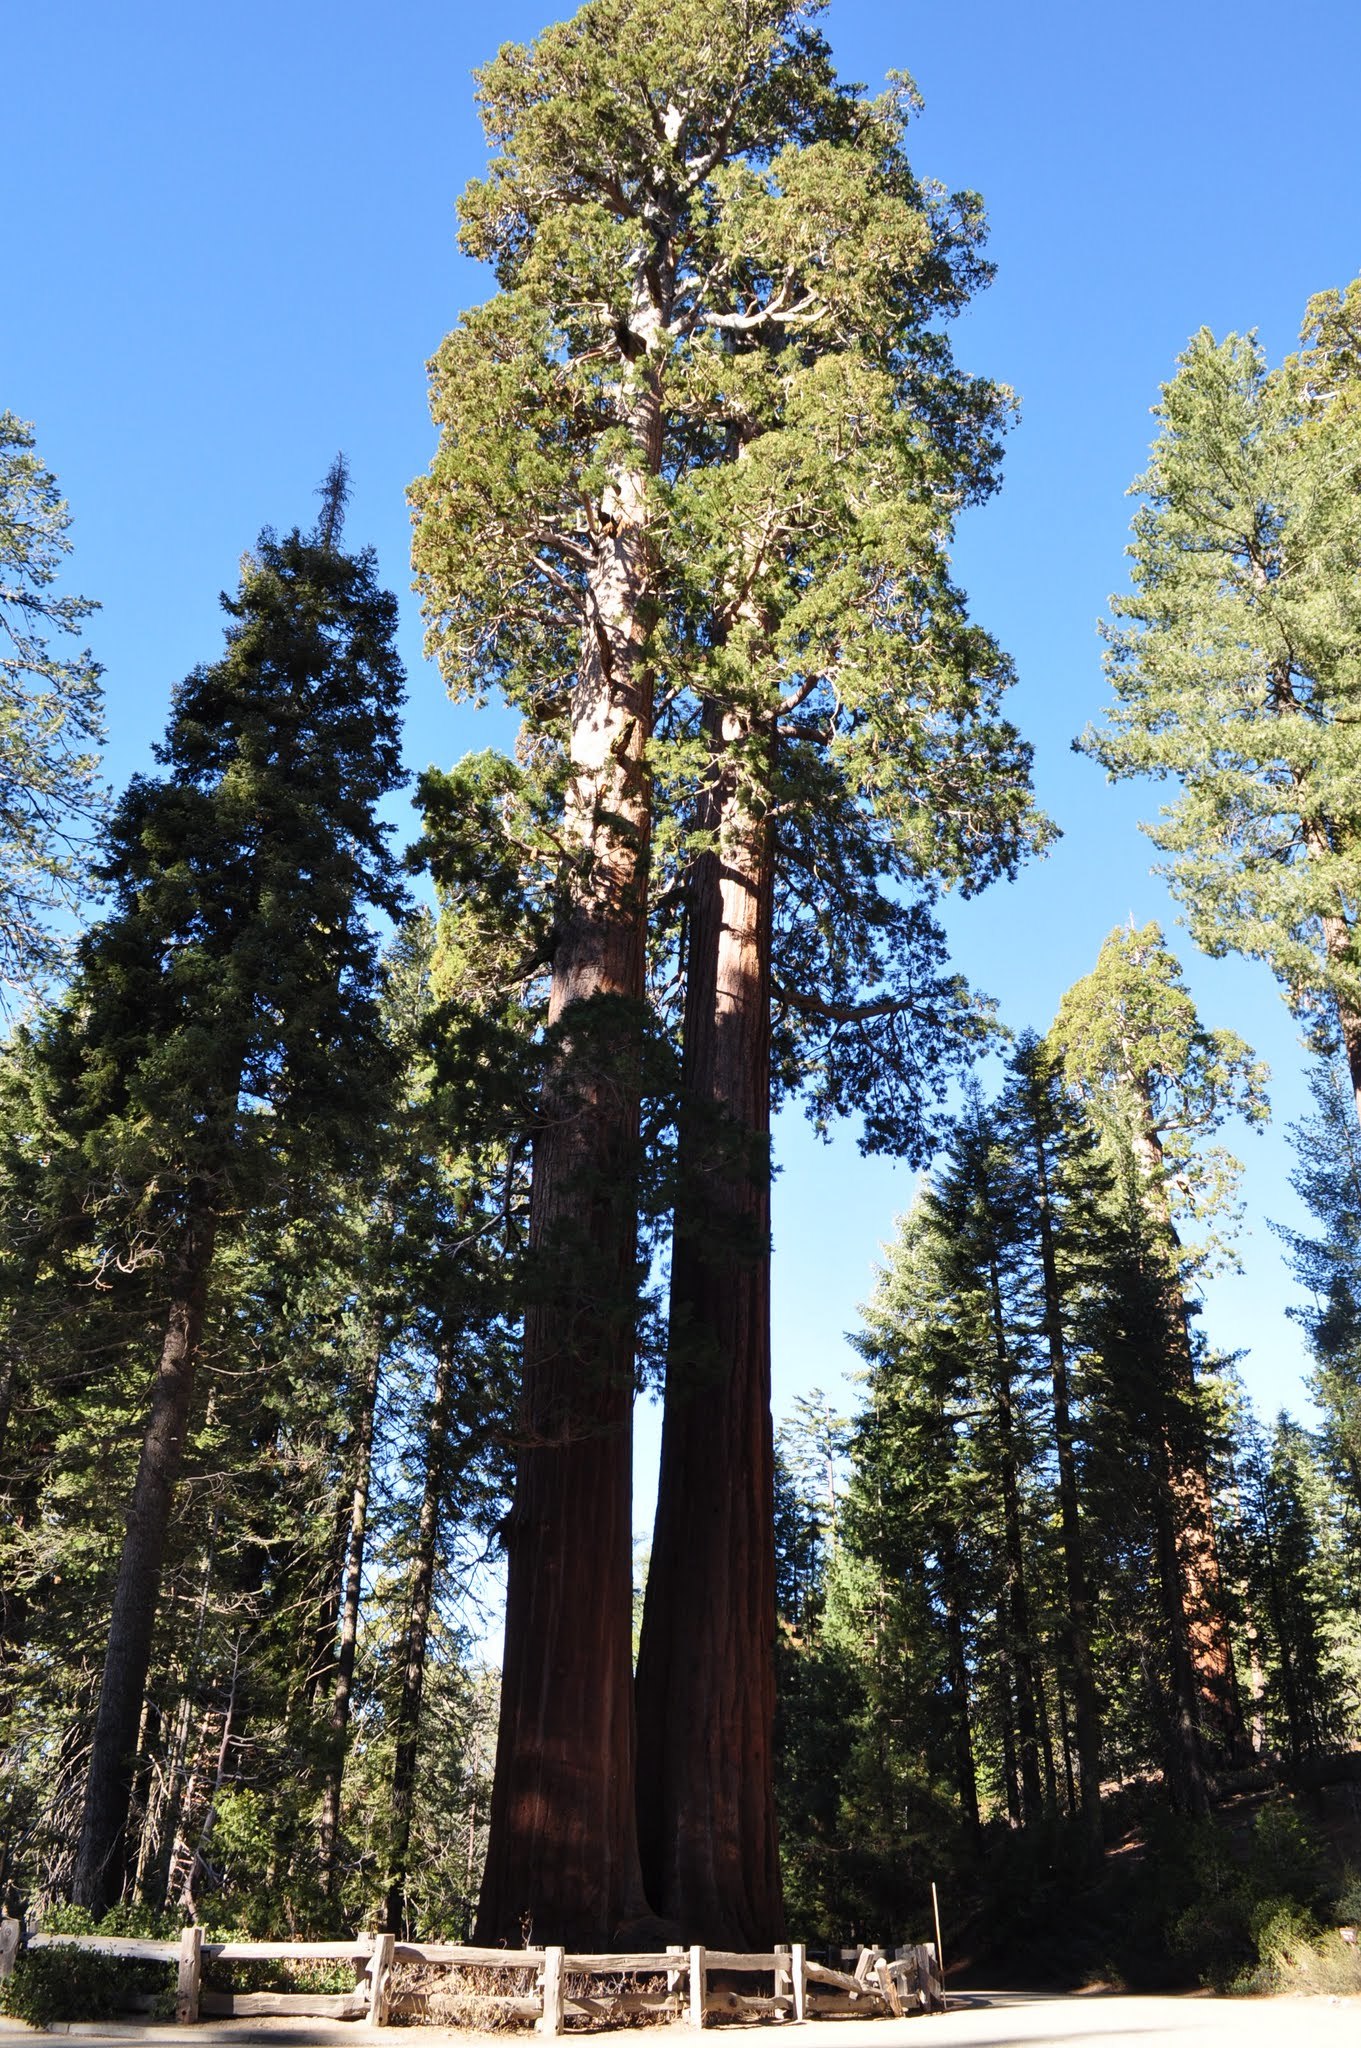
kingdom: Plantae
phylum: Tracheophyta
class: Pinopsida
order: Pinales
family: Cupressaceae
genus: Sequoiadendron
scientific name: Sequoiadendron giganteum
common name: Wellingtonia
